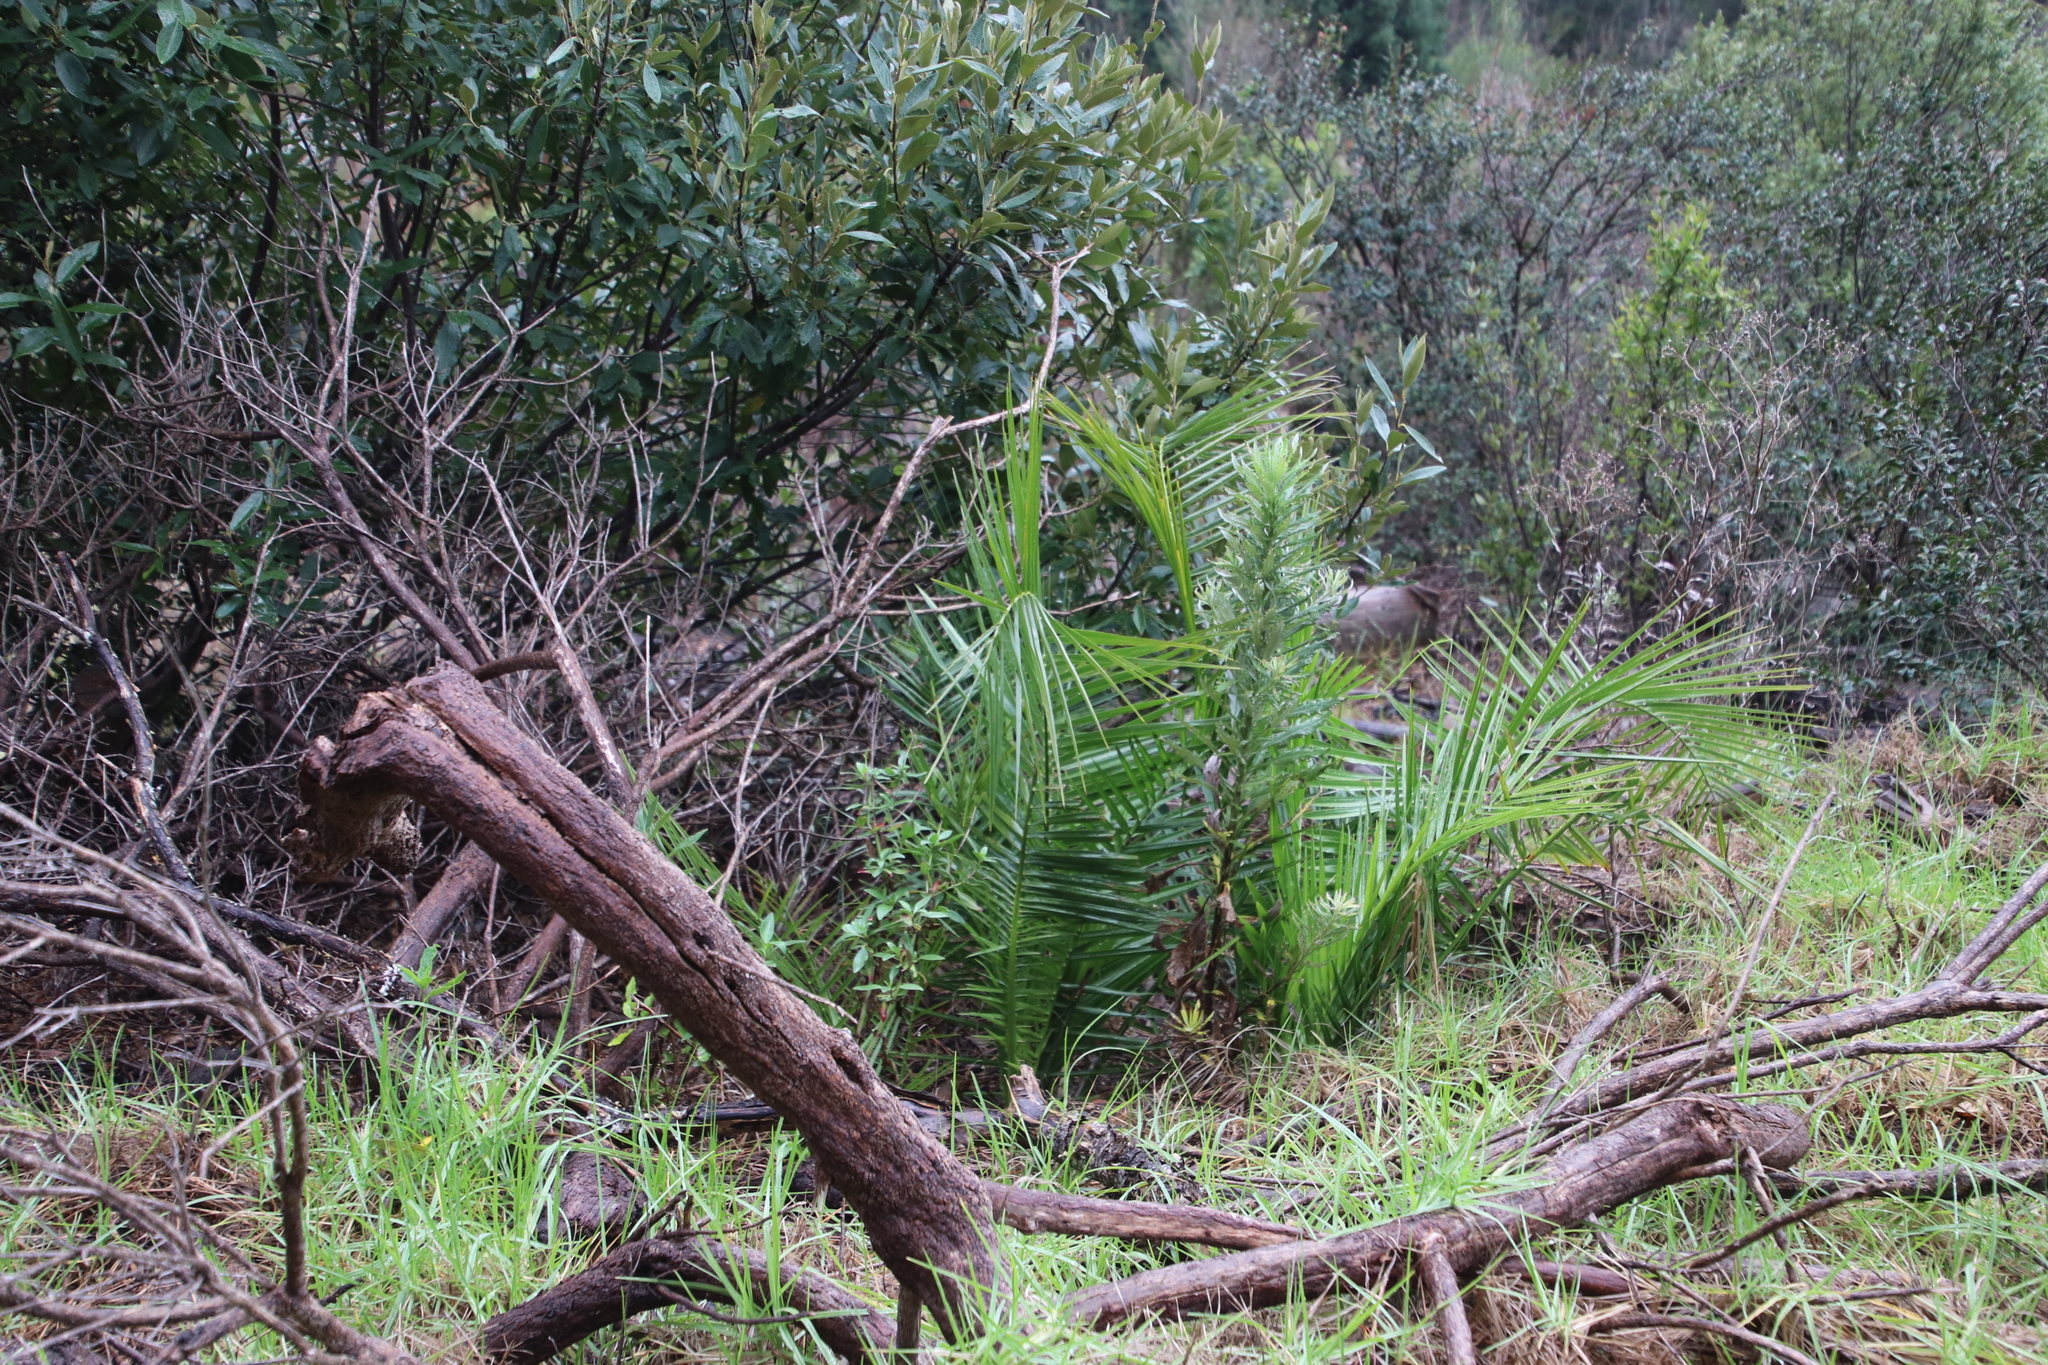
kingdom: Plantae
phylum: Tracheophyta
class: Liliopsida
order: Arecales
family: Arecaceae
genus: Phoenix
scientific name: Phoenix canariensis
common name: Canary island date palm
